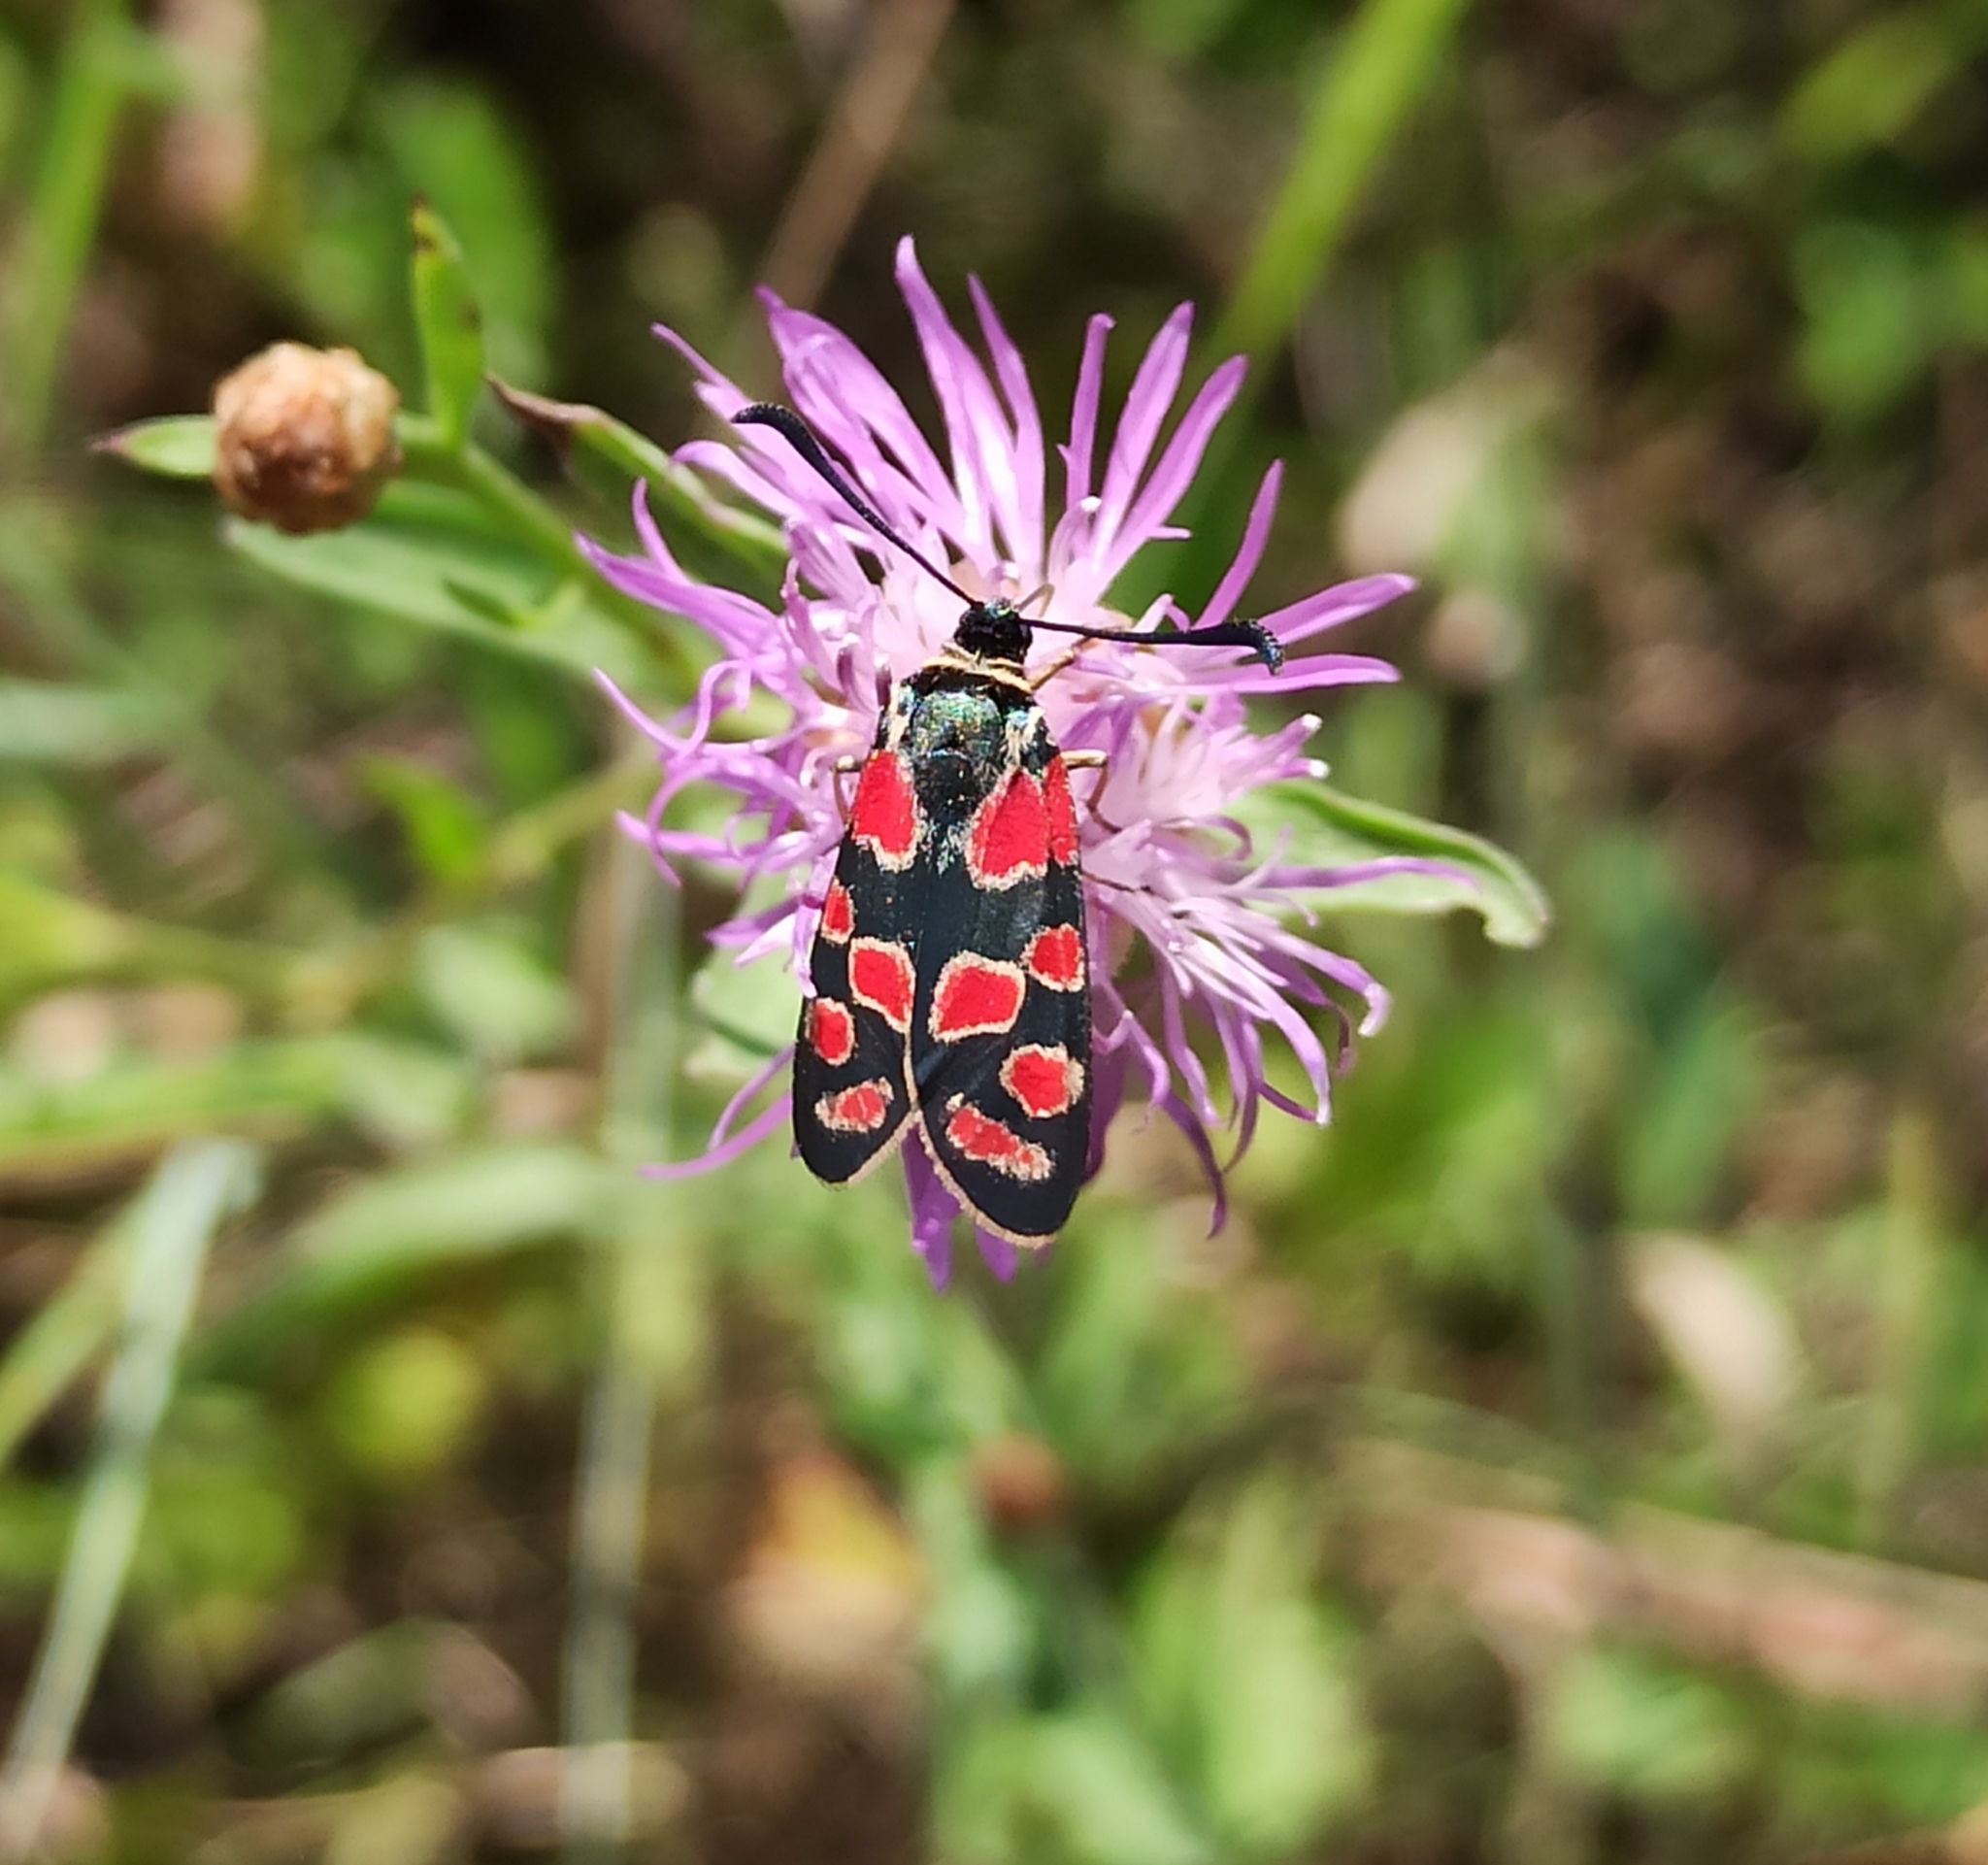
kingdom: Animalia
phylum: Arthropoda
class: Insecta
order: Lepidoptera
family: Zygaenidae
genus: Zygaena
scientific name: Zygaena carniolica
